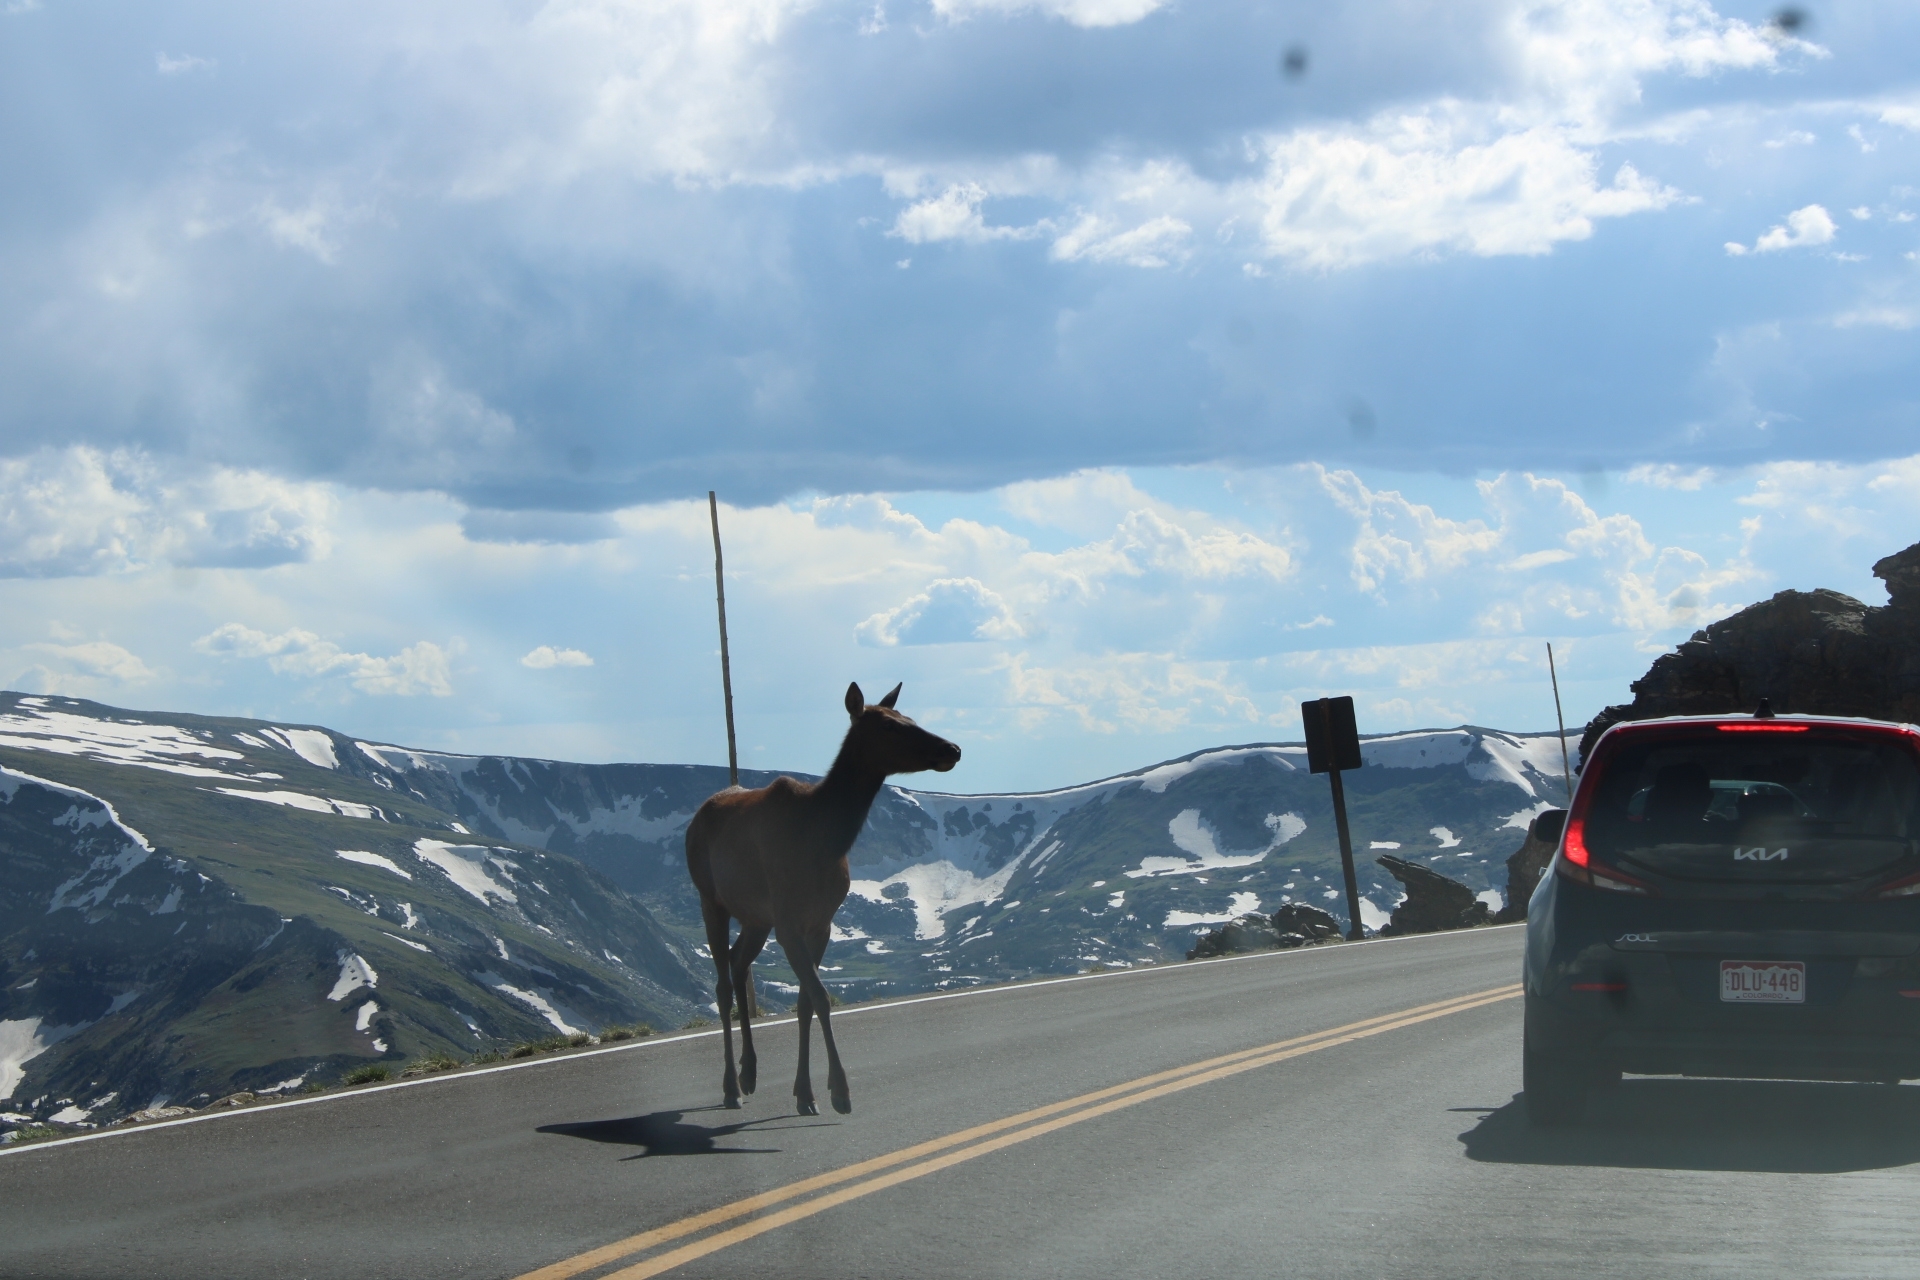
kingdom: Animalia
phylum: Chordata
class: Mammalia
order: Artiodactyla
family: Cervidae
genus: Cervus
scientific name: Cervus elaphus
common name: Red deer
